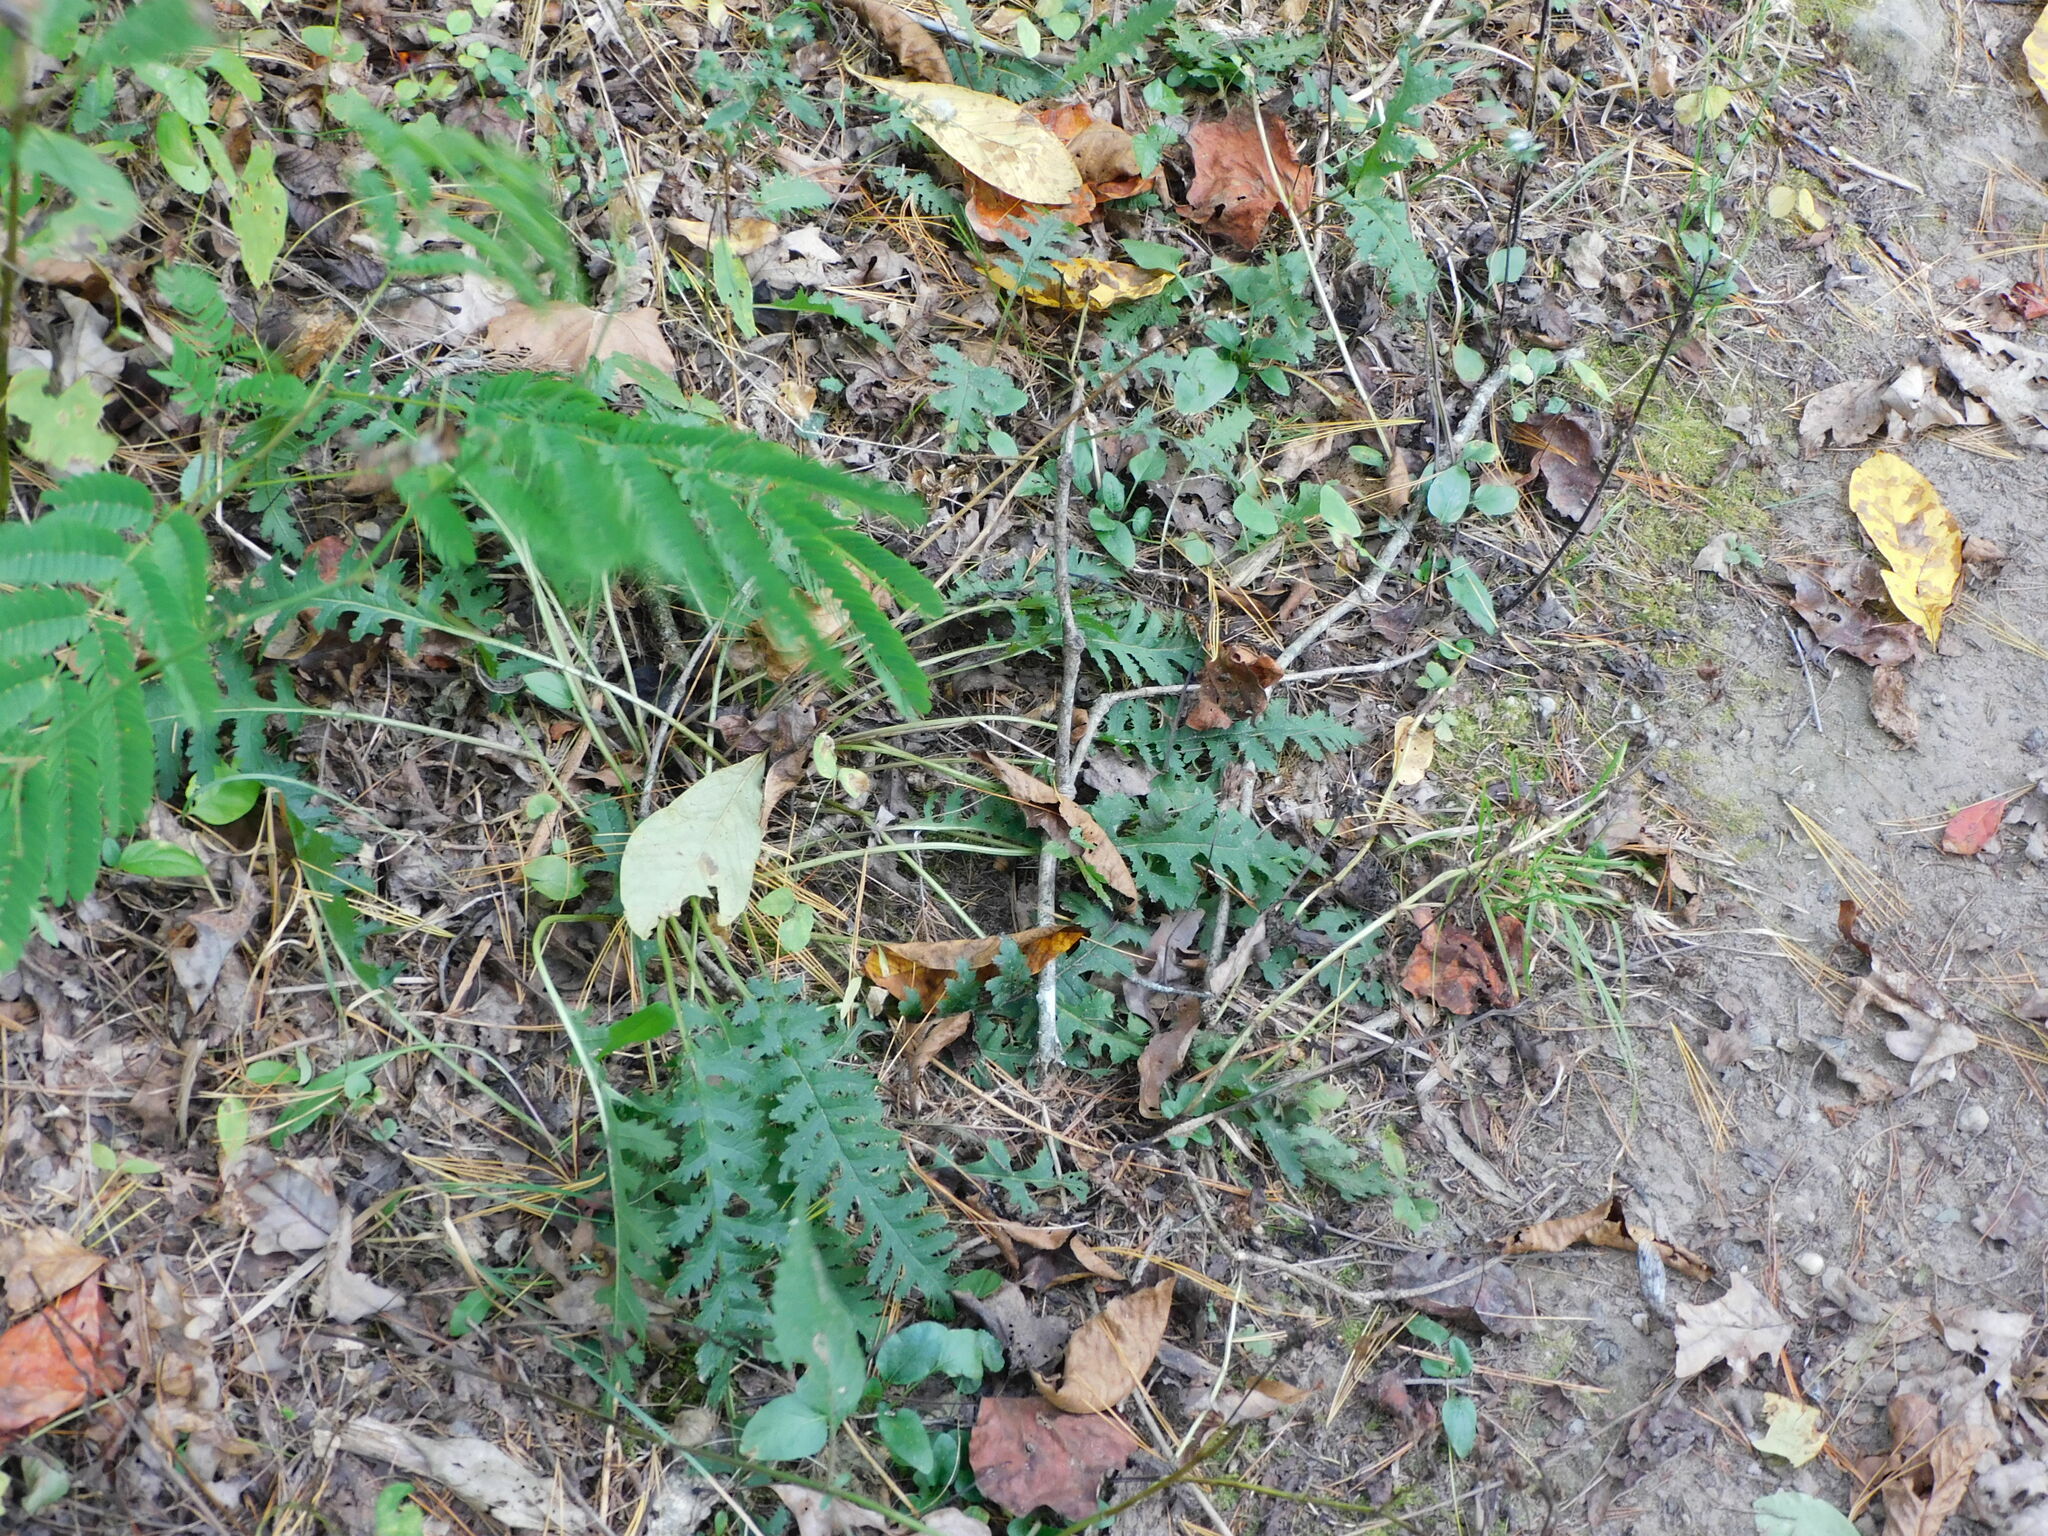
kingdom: Plantae
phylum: Tracheophyta
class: Magnoliopsida
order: Lamiales
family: Orobanchaceae
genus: Pedicularis
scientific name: Pedicularis canadensis
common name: Early lousewort
